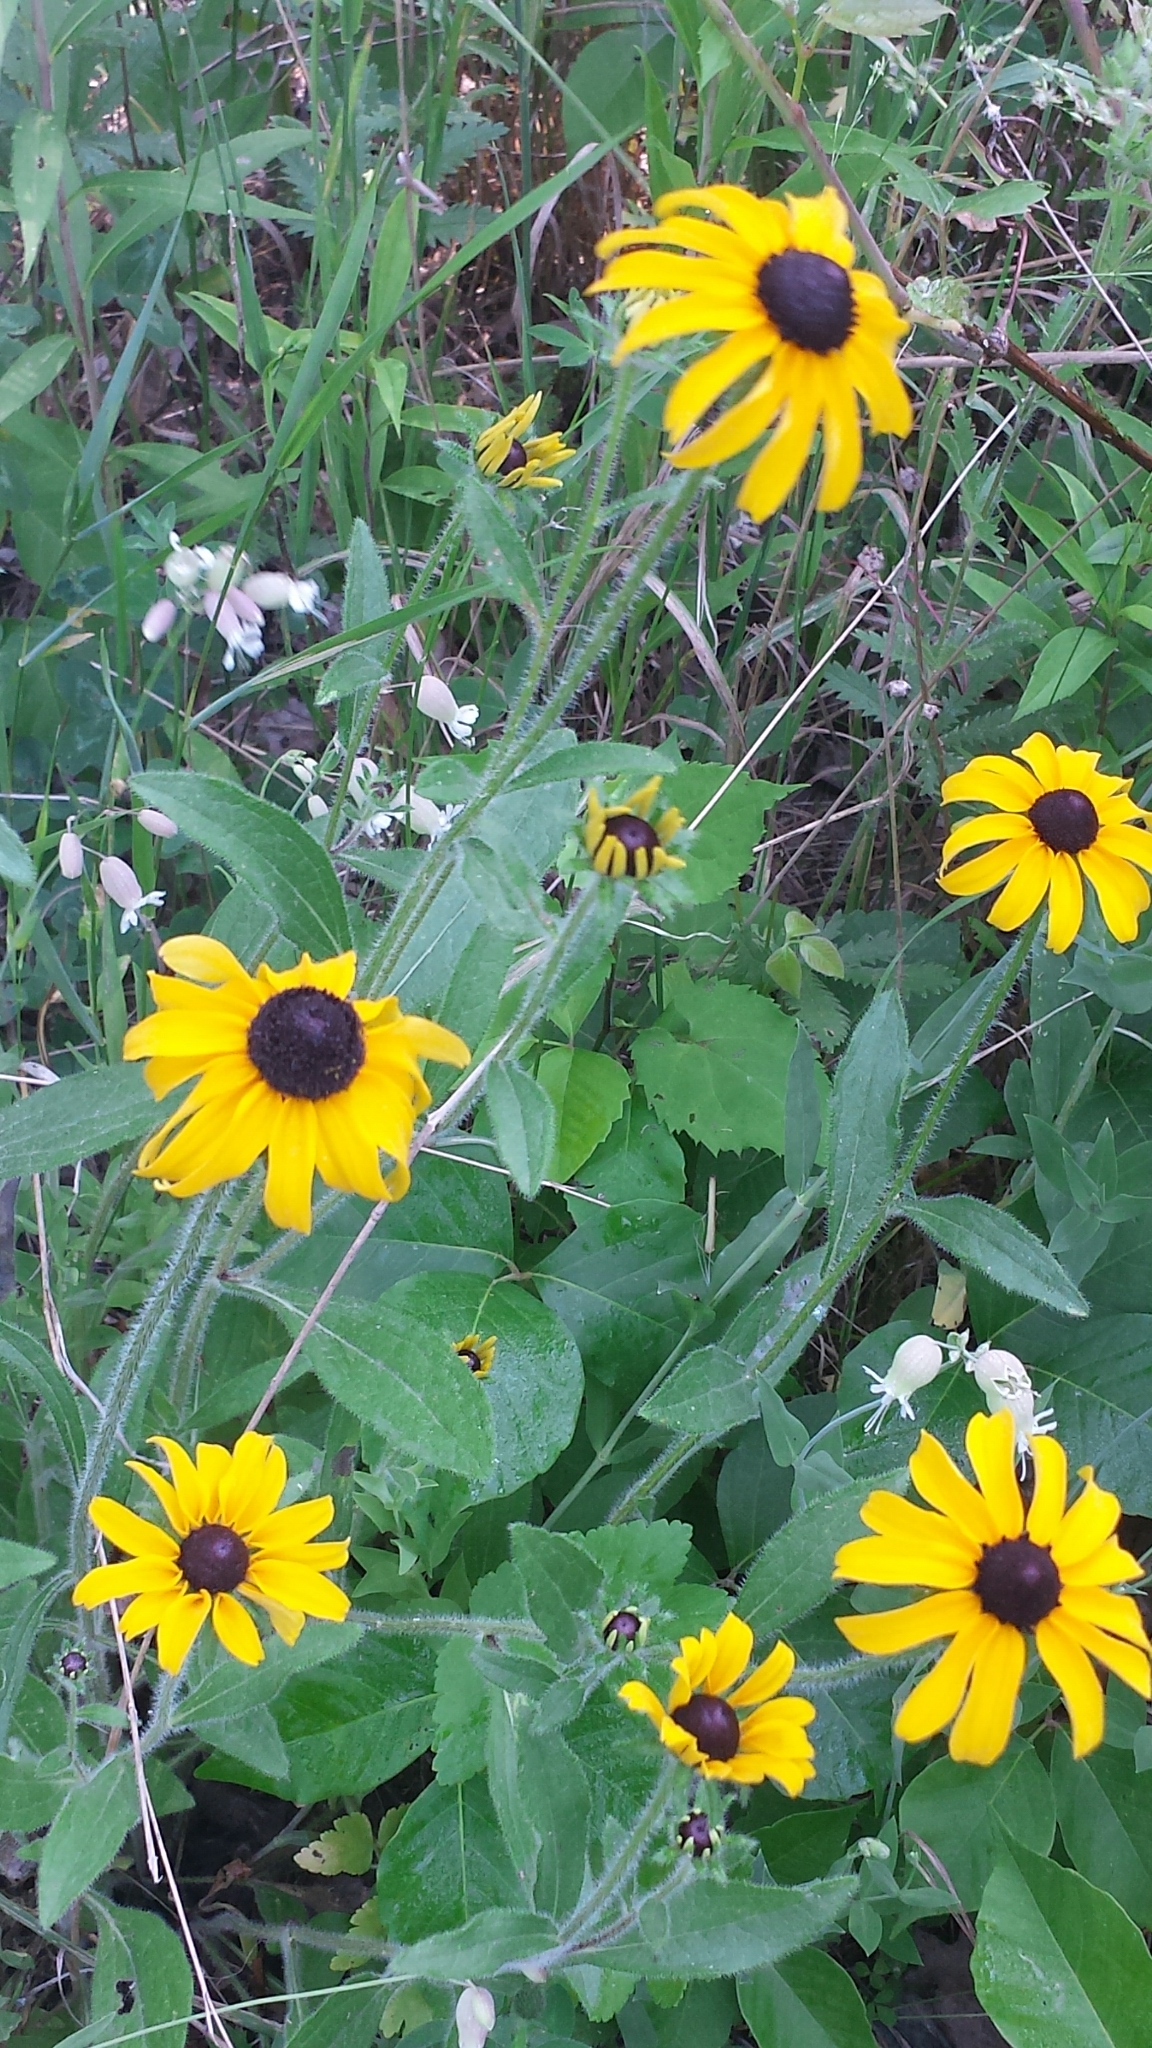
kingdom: Plantae
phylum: Tracheophyta
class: Magnoliopsida
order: Asterales
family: Asteraceae
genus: Rudbeckia
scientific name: Rudbeckia hirta
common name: Black-eyed-susan
